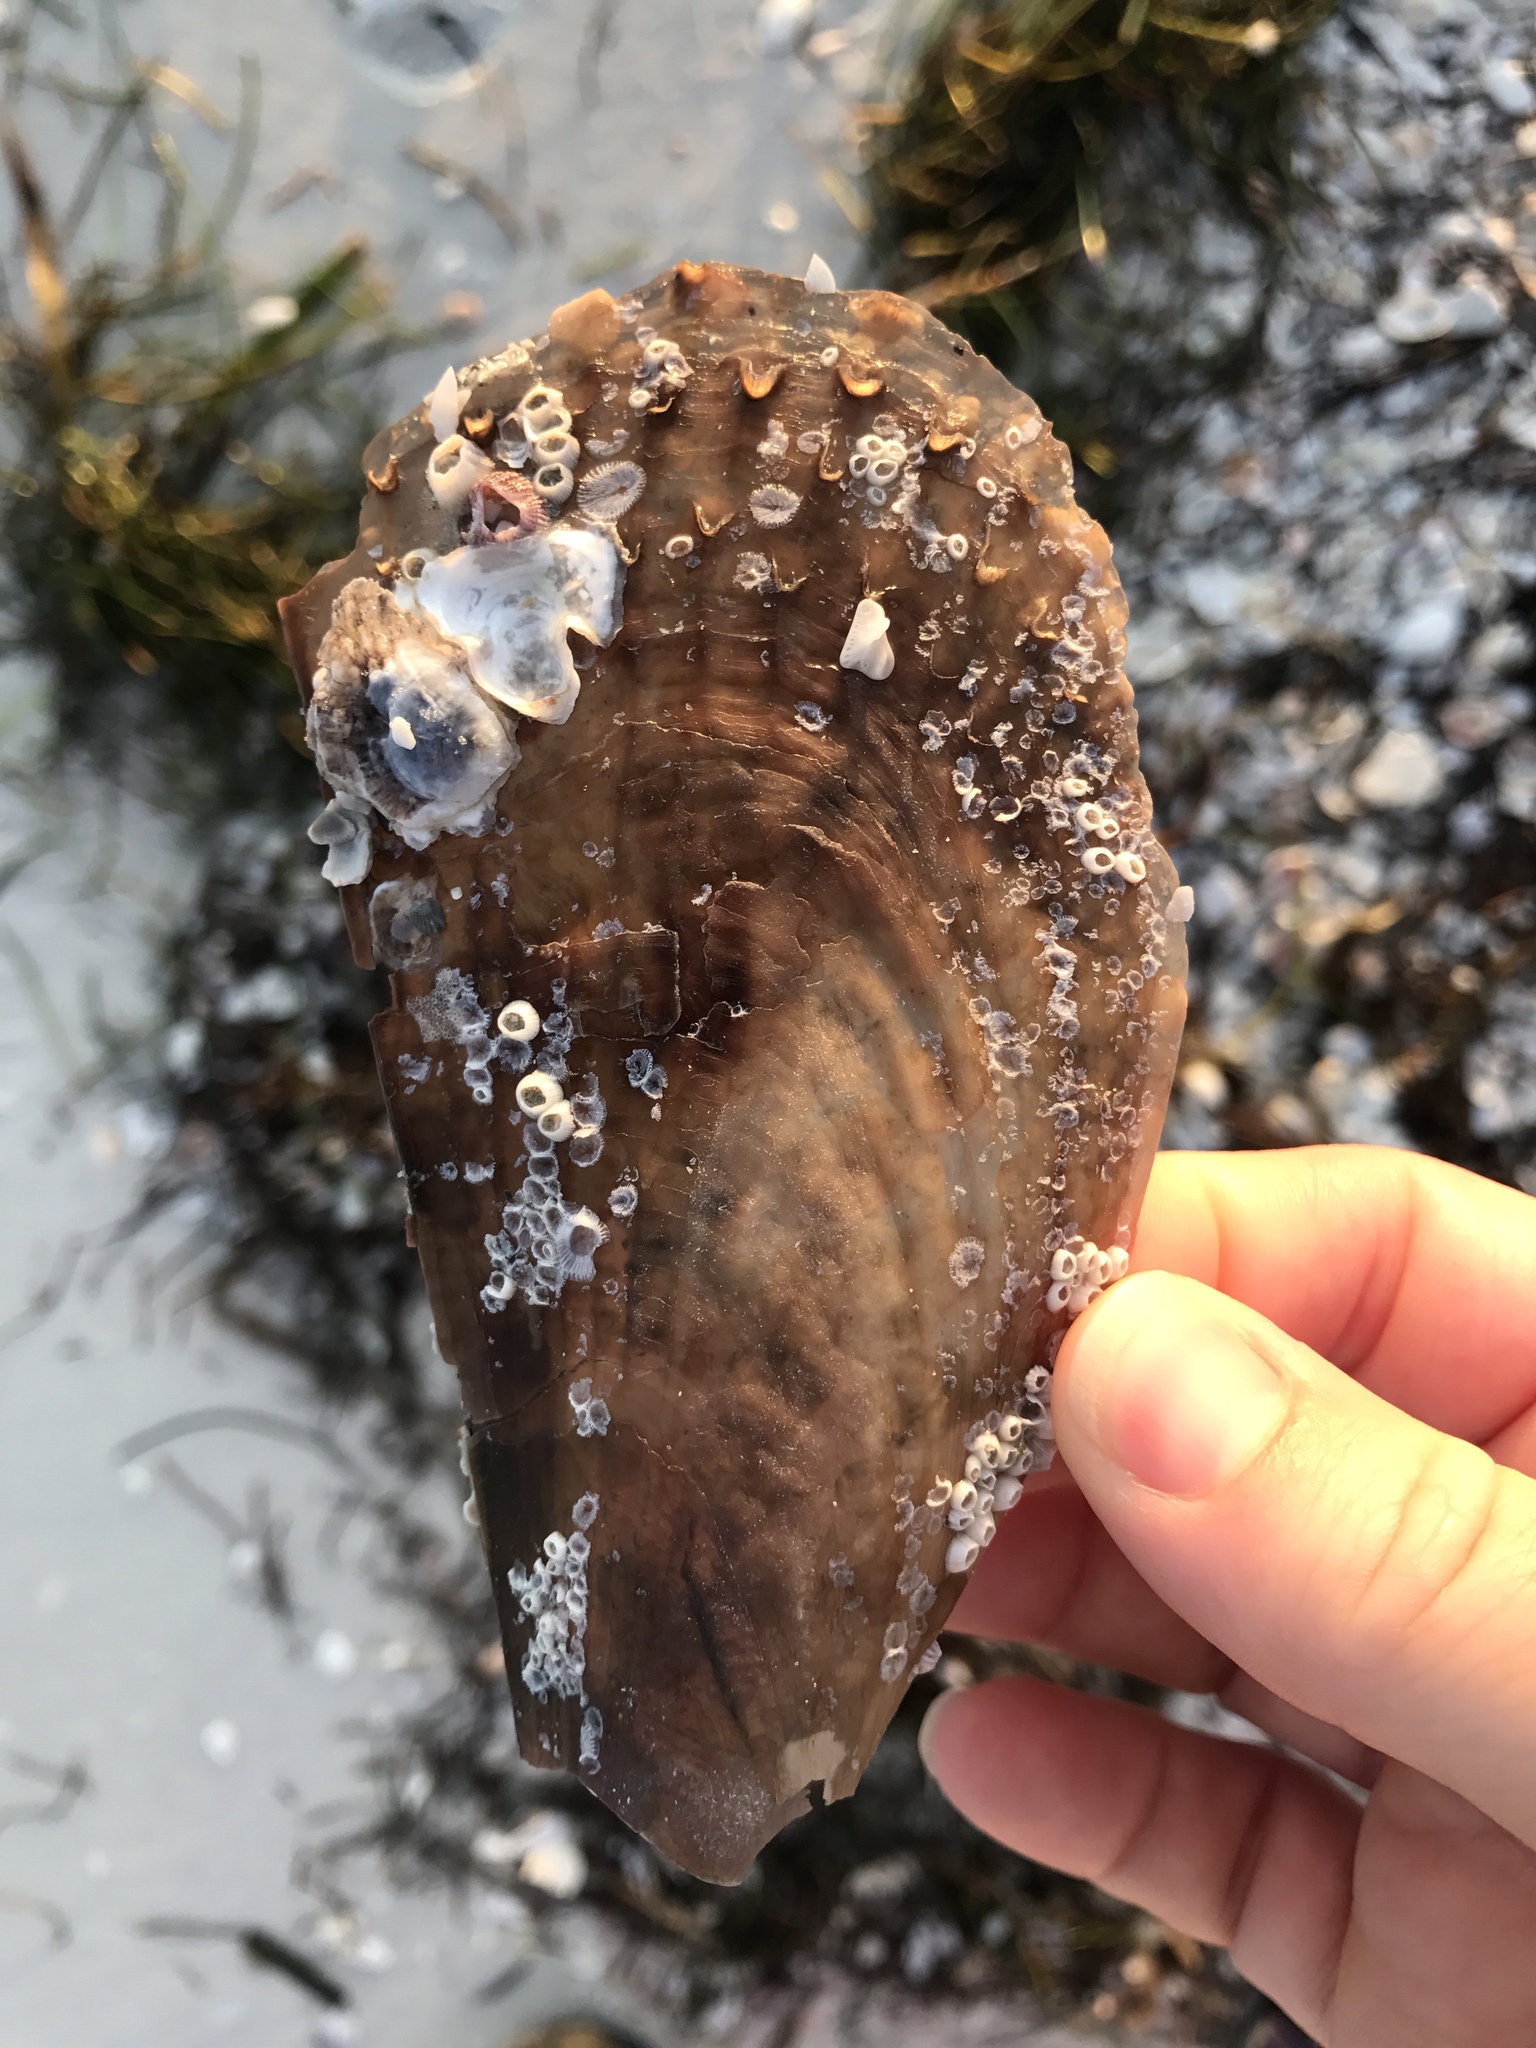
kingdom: Animalia
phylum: Mollusca
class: Bivalvia
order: Ostreida
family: Pinnidae
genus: Atrina
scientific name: Atrina rigida
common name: Stiff penshell
